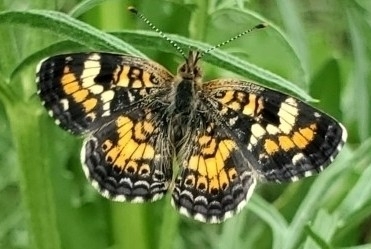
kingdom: Animalia
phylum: Arthropoda
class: Insecta
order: Lepidoptera
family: Nymphalidae
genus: Phyciodes
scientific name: Phyciodes phaon
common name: Phaon crescent
